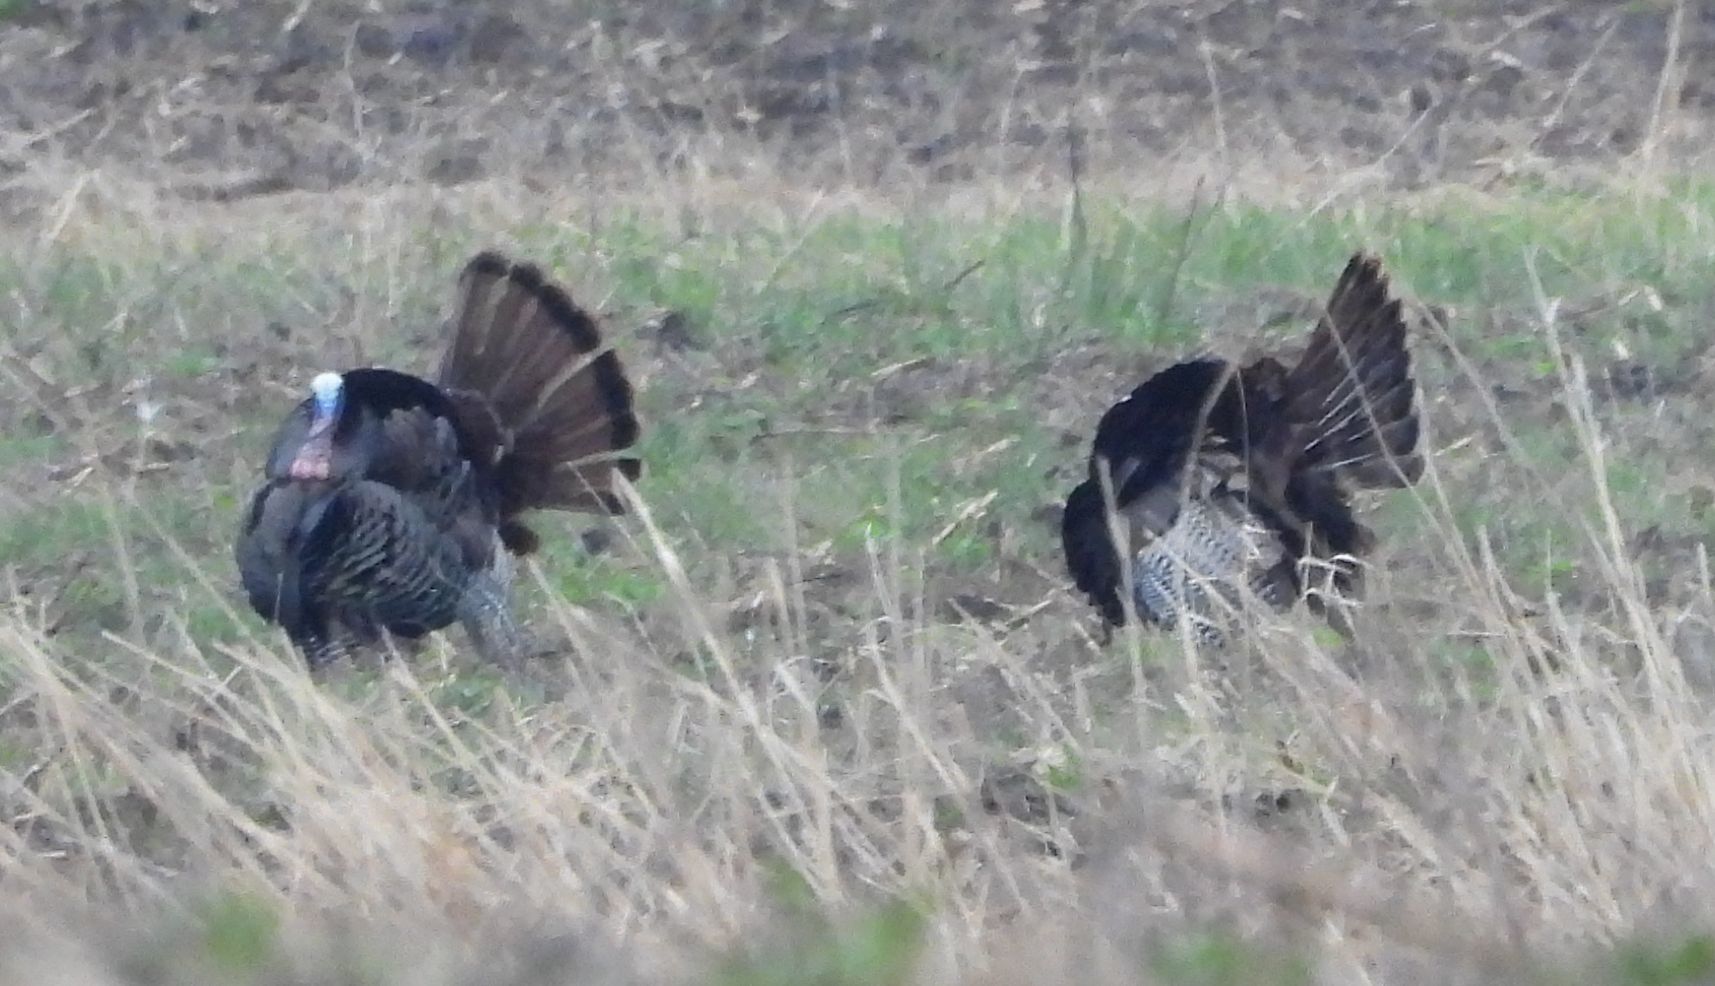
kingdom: Animalia
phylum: Chordata
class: Aves
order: Galliformes
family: Phasianidae
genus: Meleagris
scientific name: Meleagris gallopavo
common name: Wild turkey
